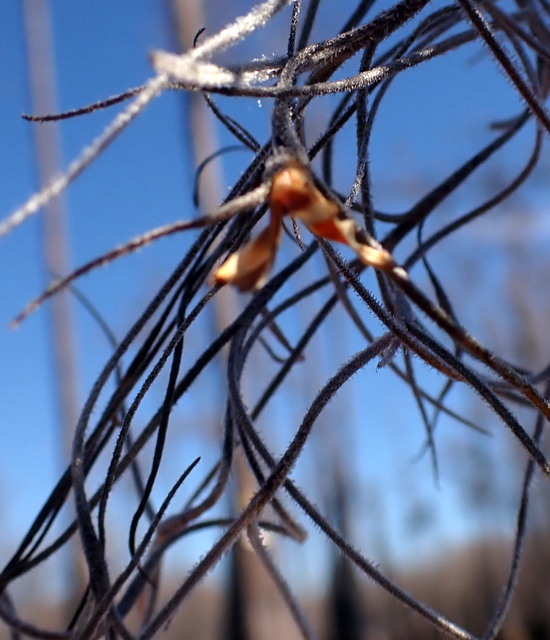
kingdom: Plantae
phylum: Tracheophyta
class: Liliopsida
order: Poales
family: Bromeliaceae
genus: Tillandsia
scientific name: Tillandsia usneoides
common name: Spanish moss
